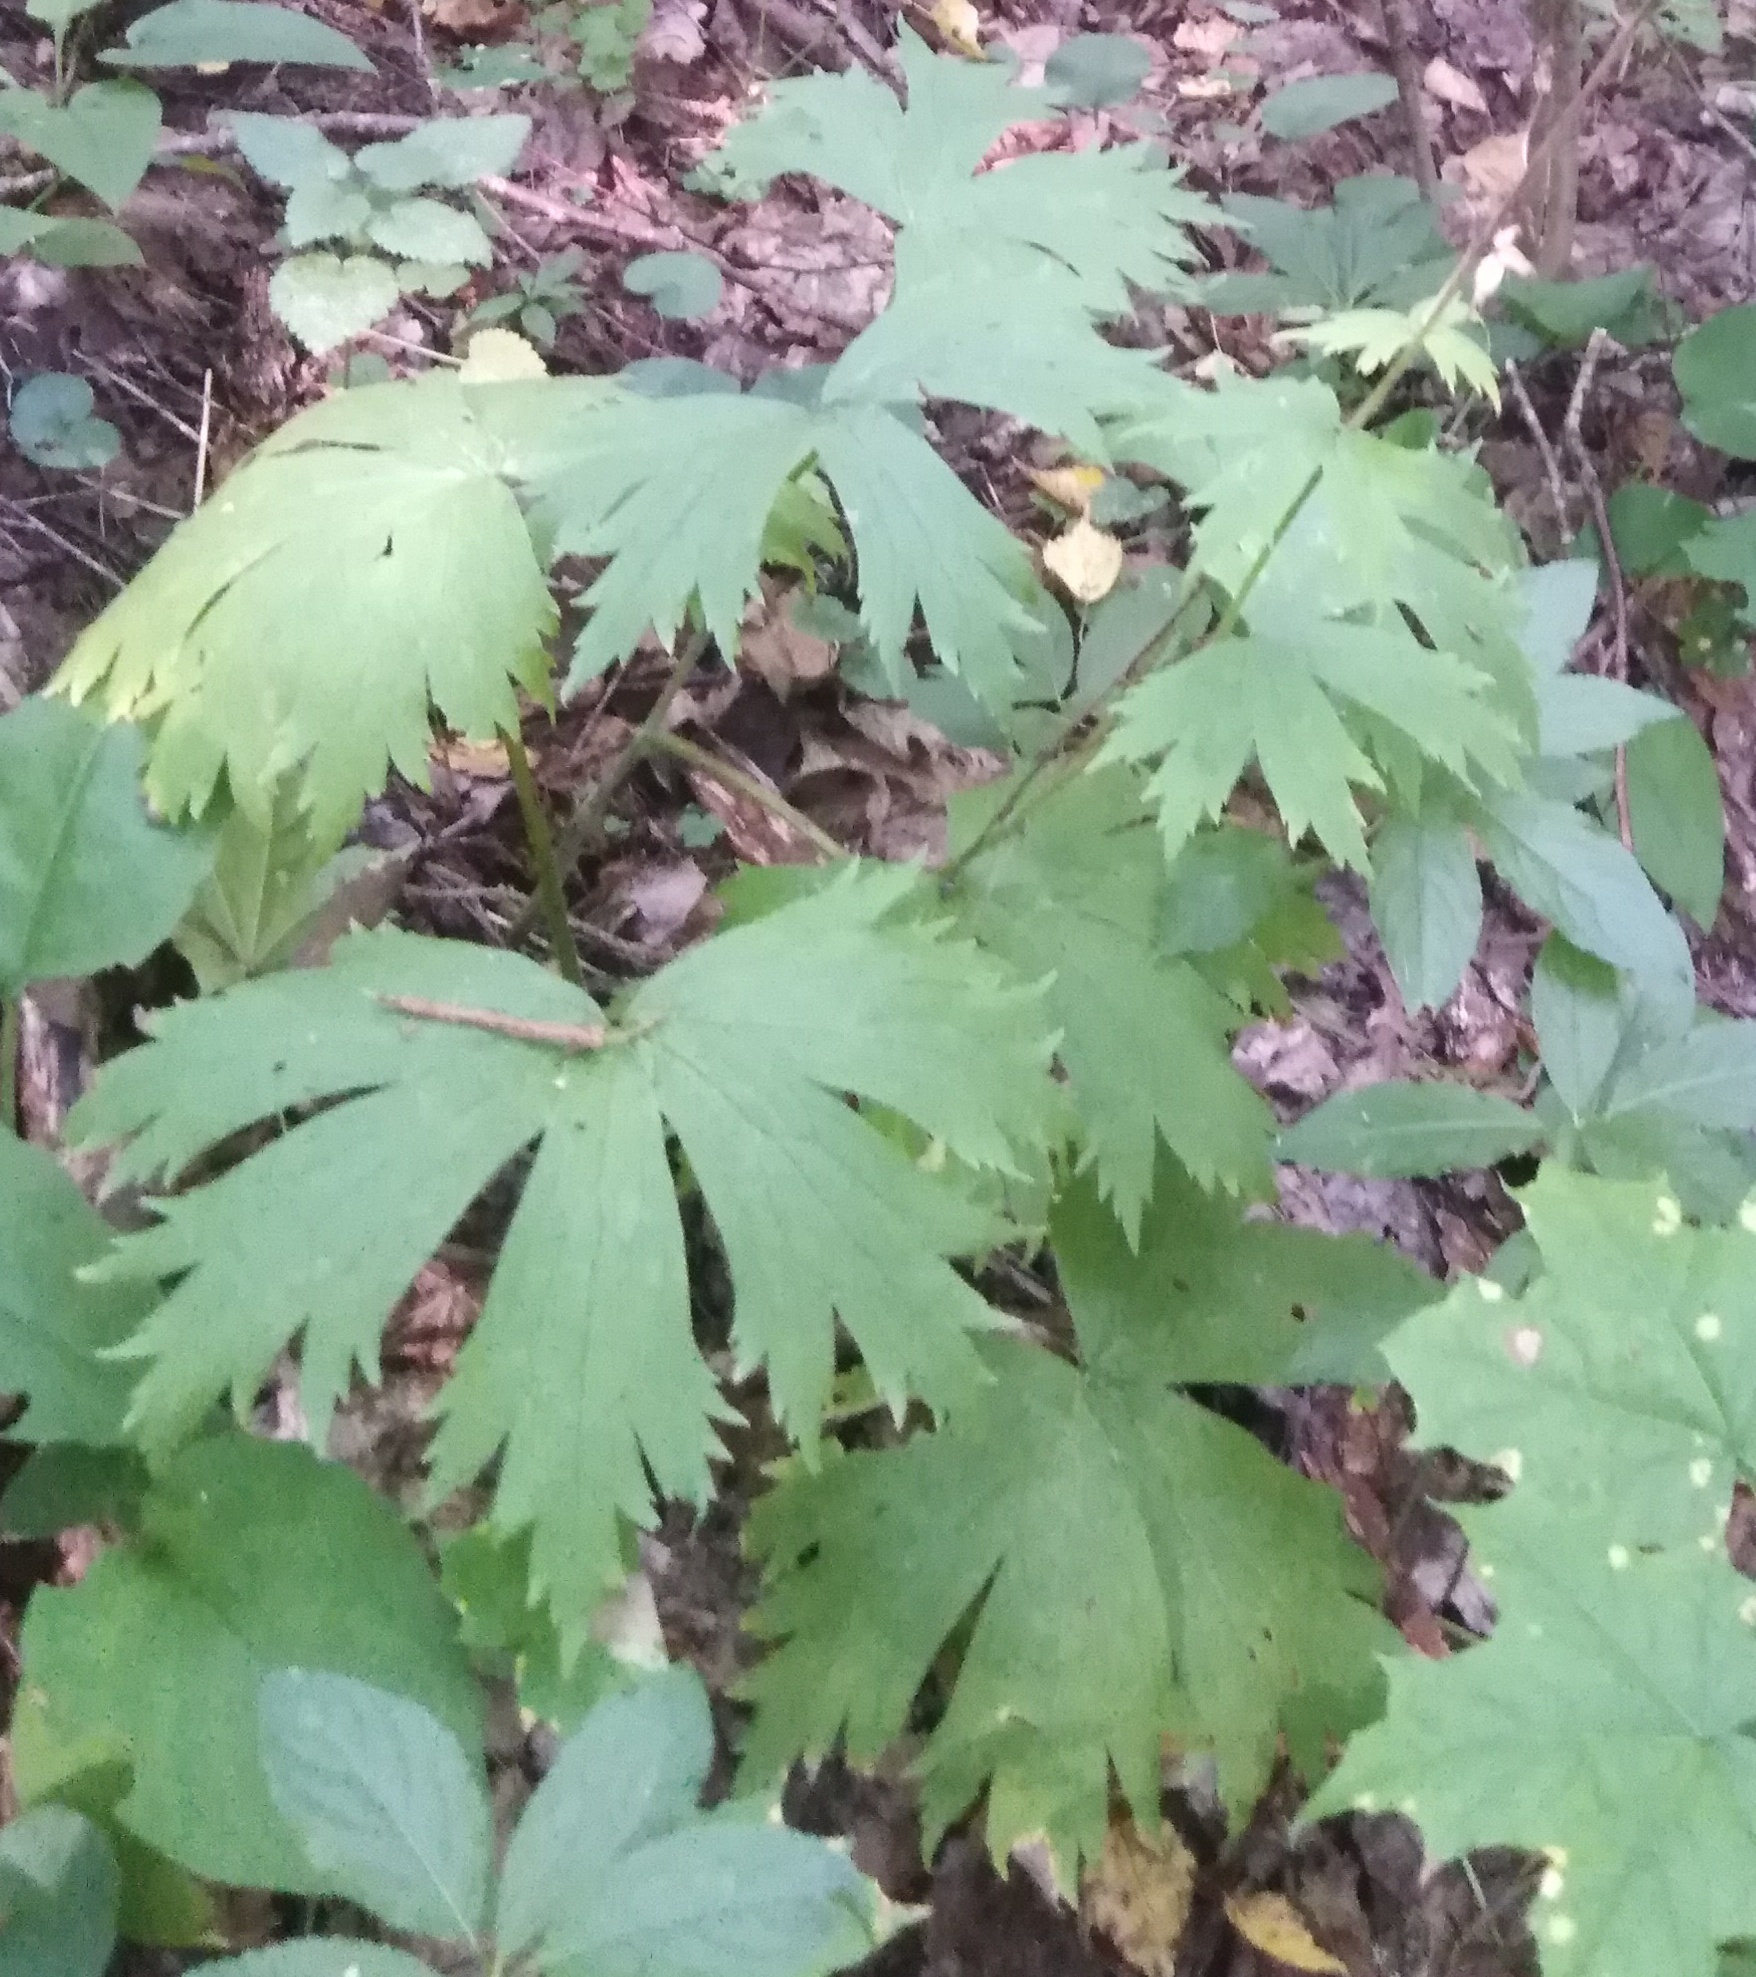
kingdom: Plantae
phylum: Tracheophyta
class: Magnoliopsida
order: Ranunculales
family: Ranunculaceae
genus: Aconitum
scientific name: Aconitum septentrionale
